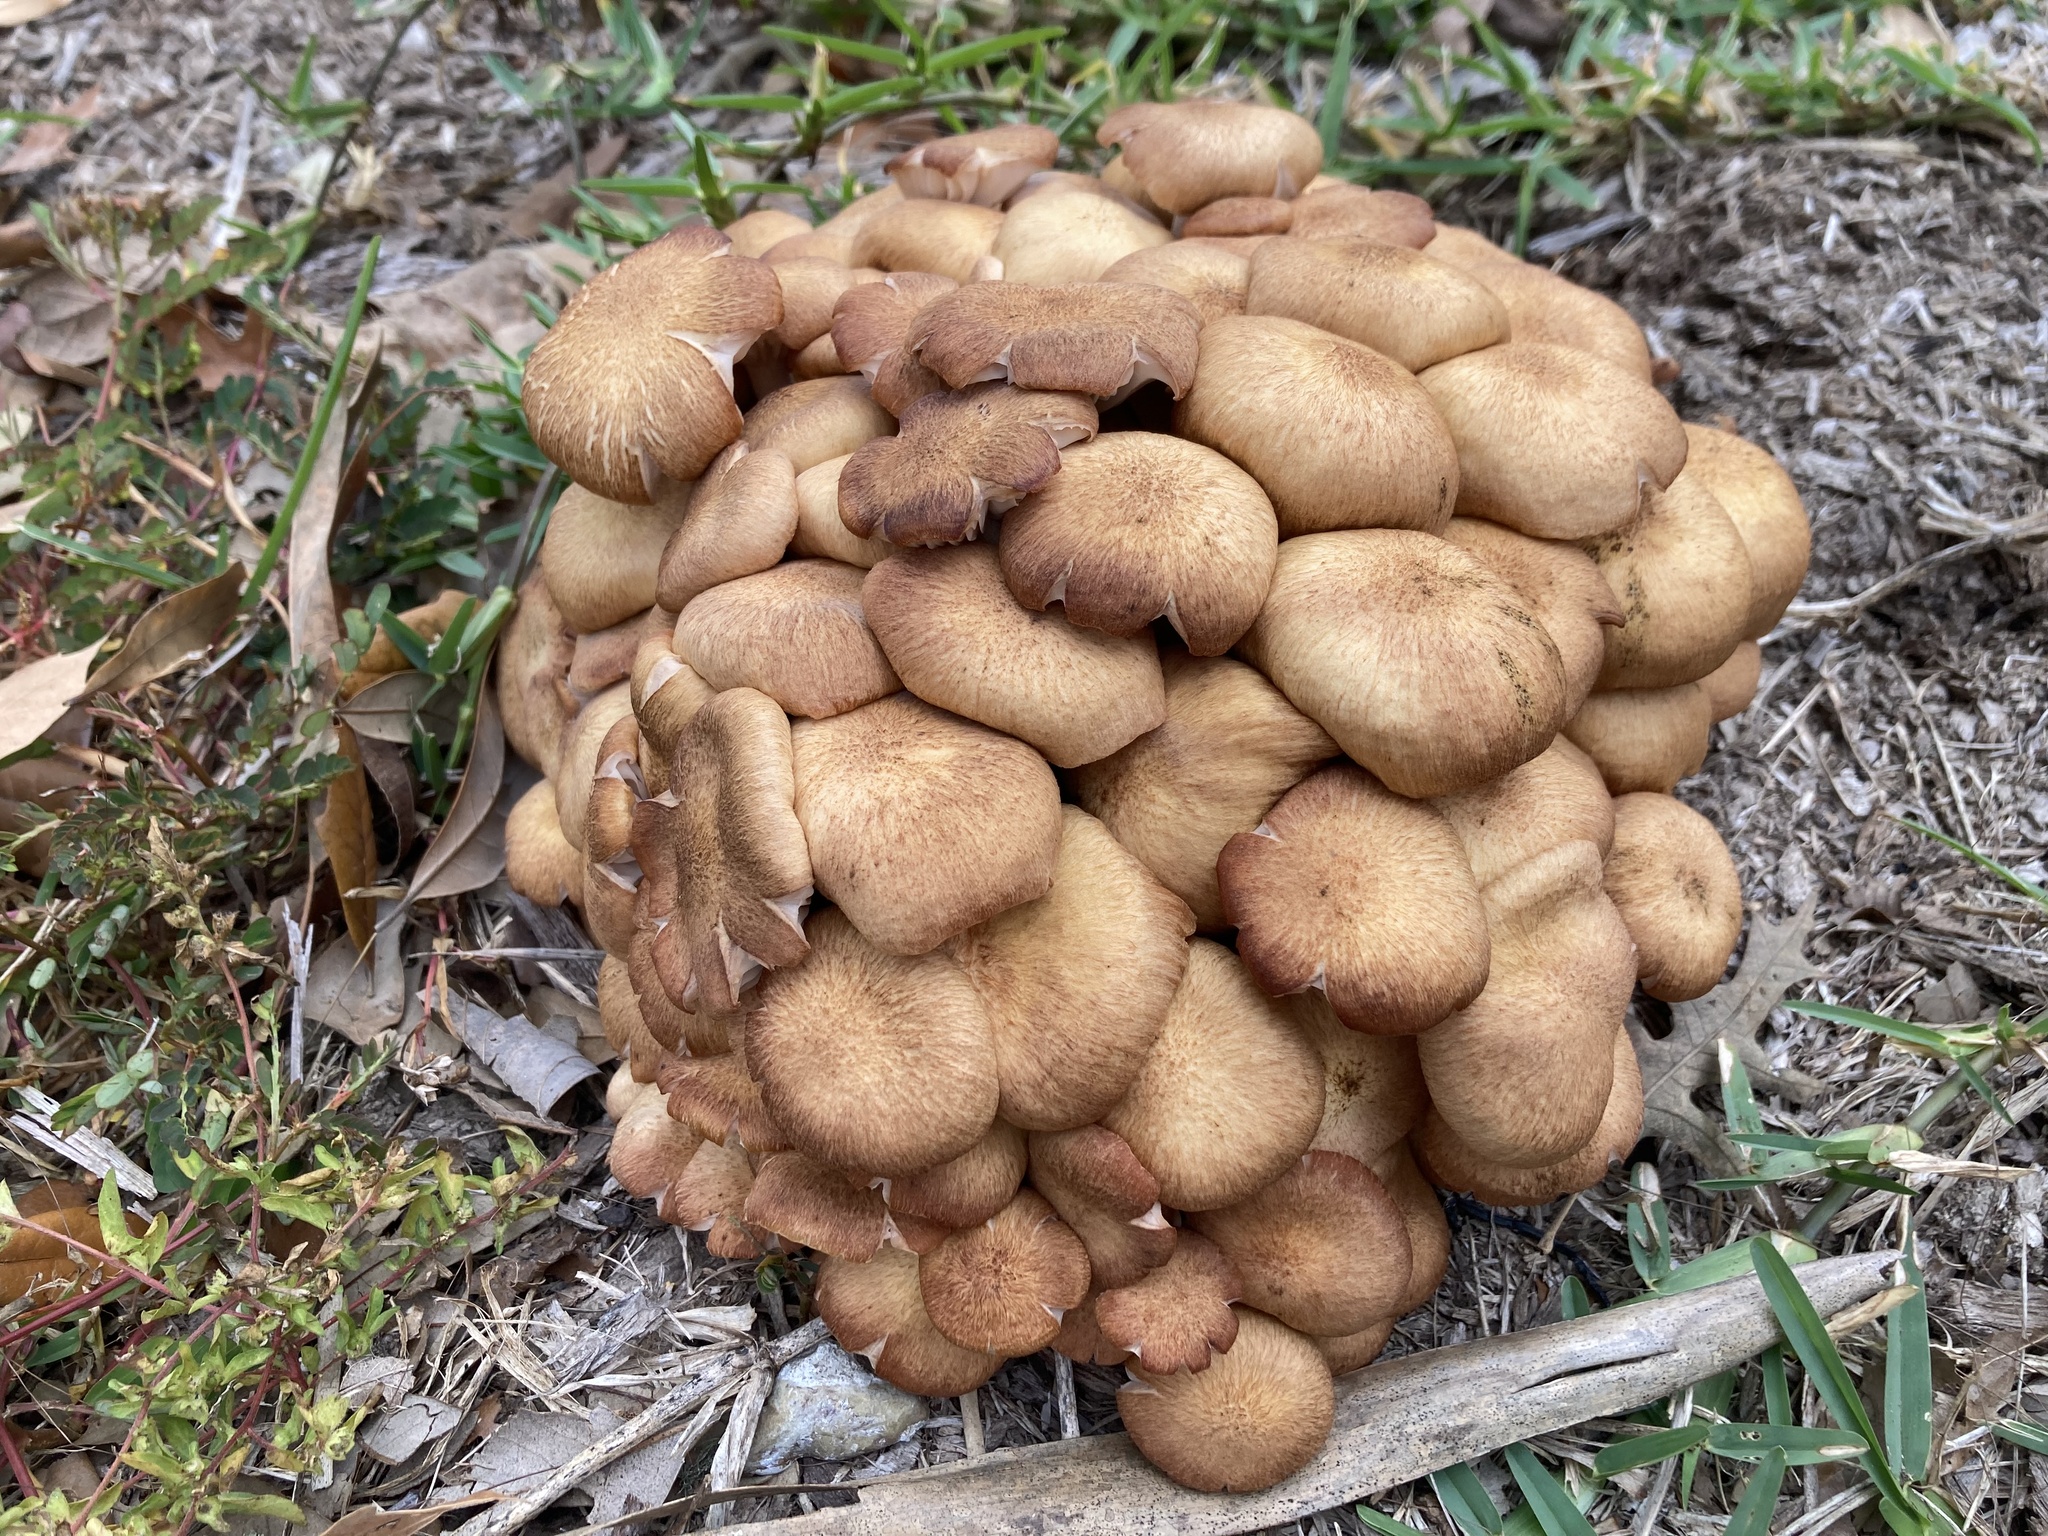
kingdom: Fungi
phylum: Basidiomycota
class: Agaricomycetes
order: Agaricales
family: Physalacriaceae
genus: Desarmillaria
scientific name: Desarmillaria caespitosa
